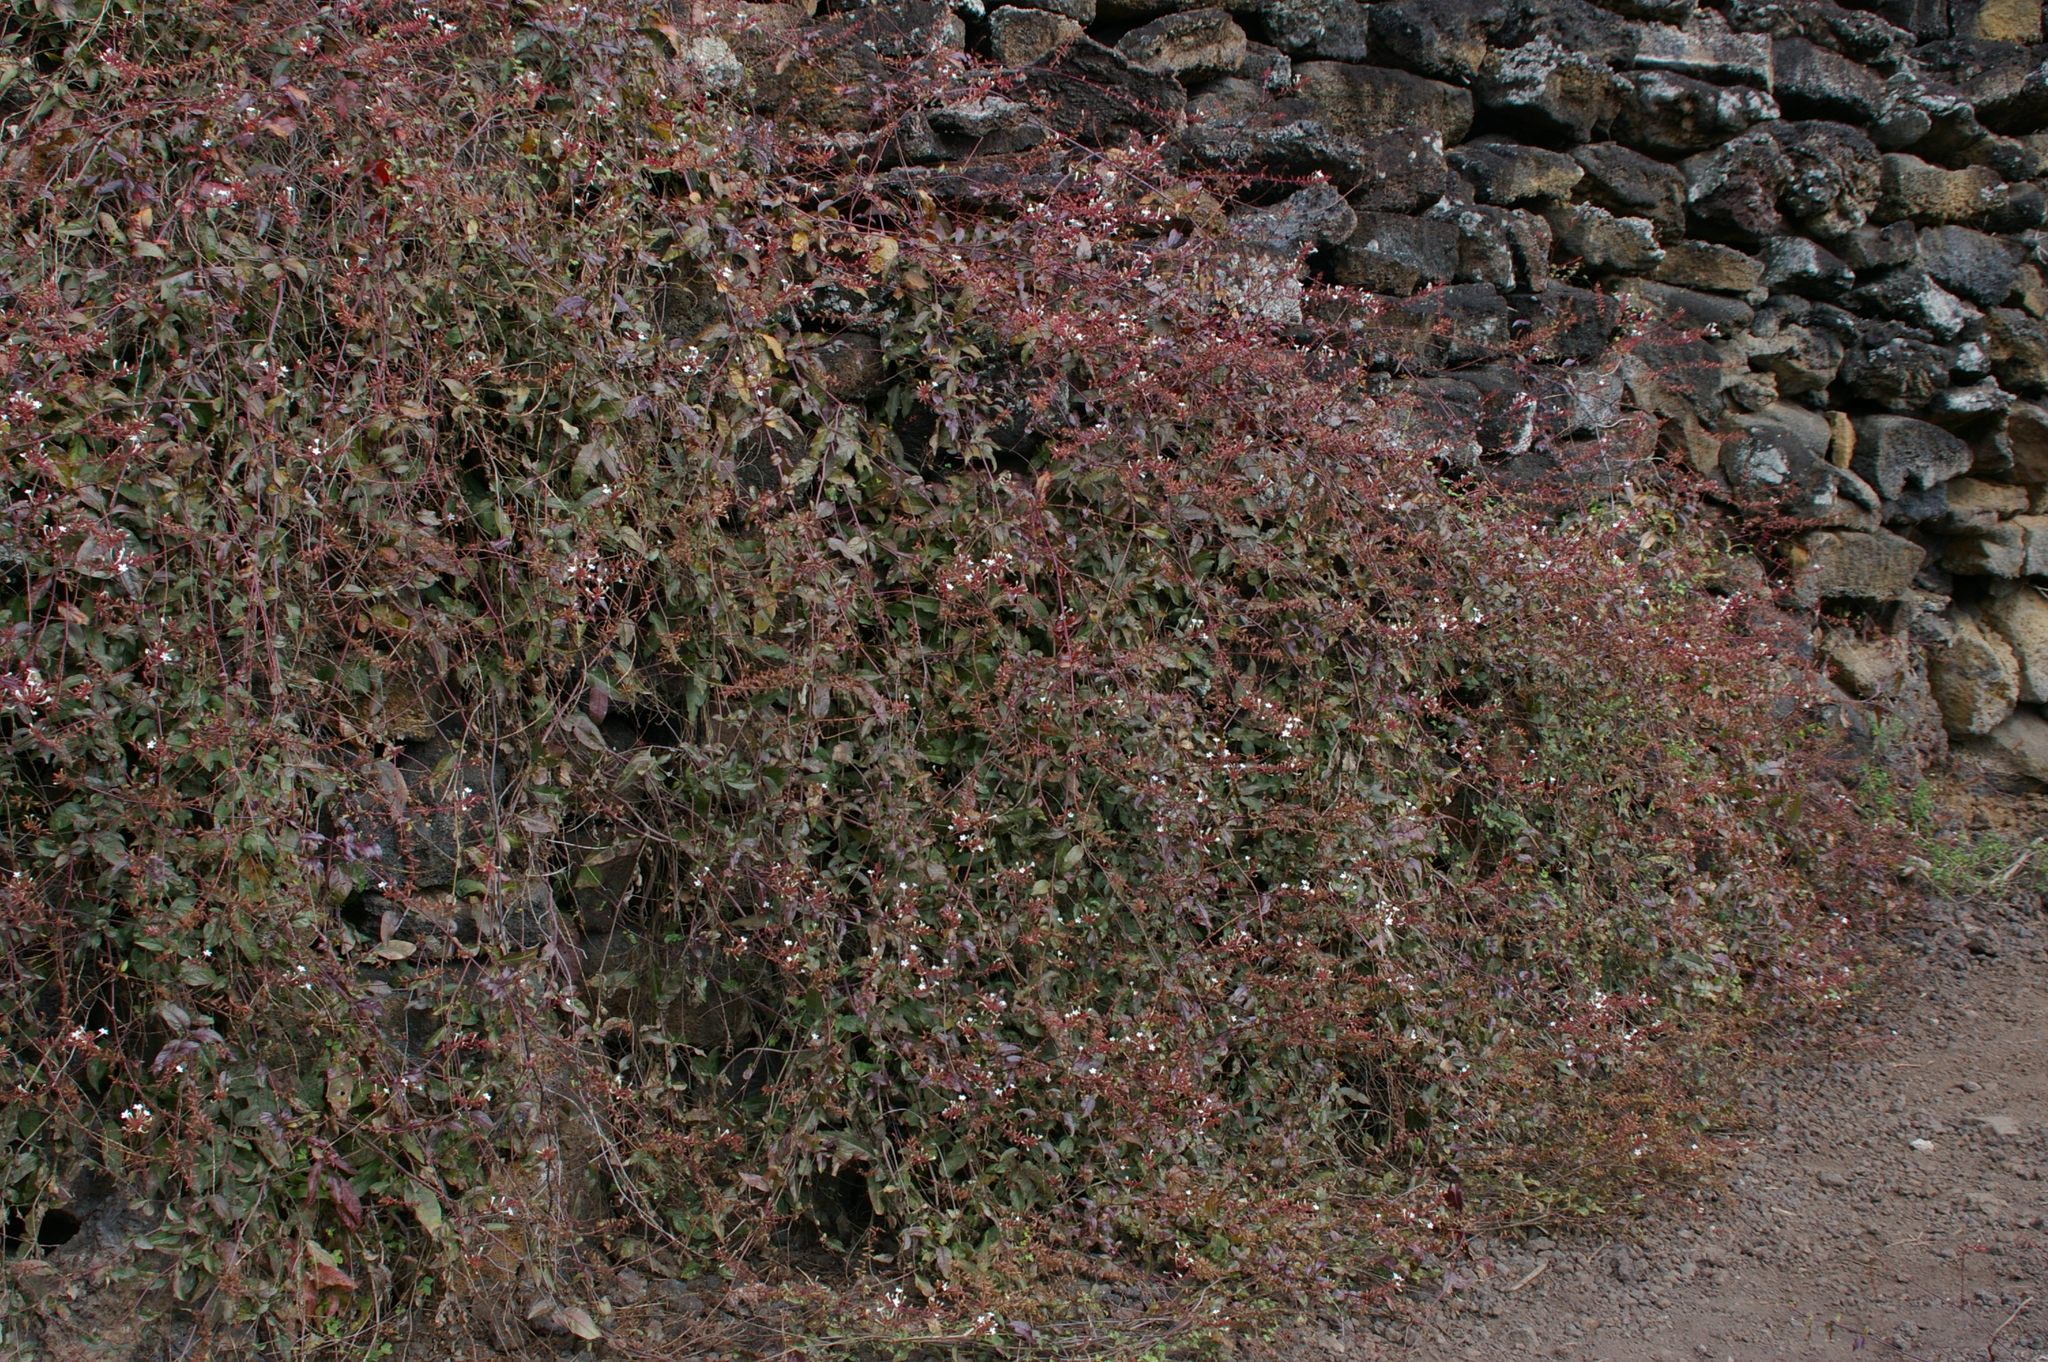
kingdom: Plantae
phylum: Tracheophyta
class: Magnoliopsida
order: Caryophyllales
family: Plumbaginaceae
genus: Plumbago
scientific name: Plumbago zeylanica
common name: Doctorbush
